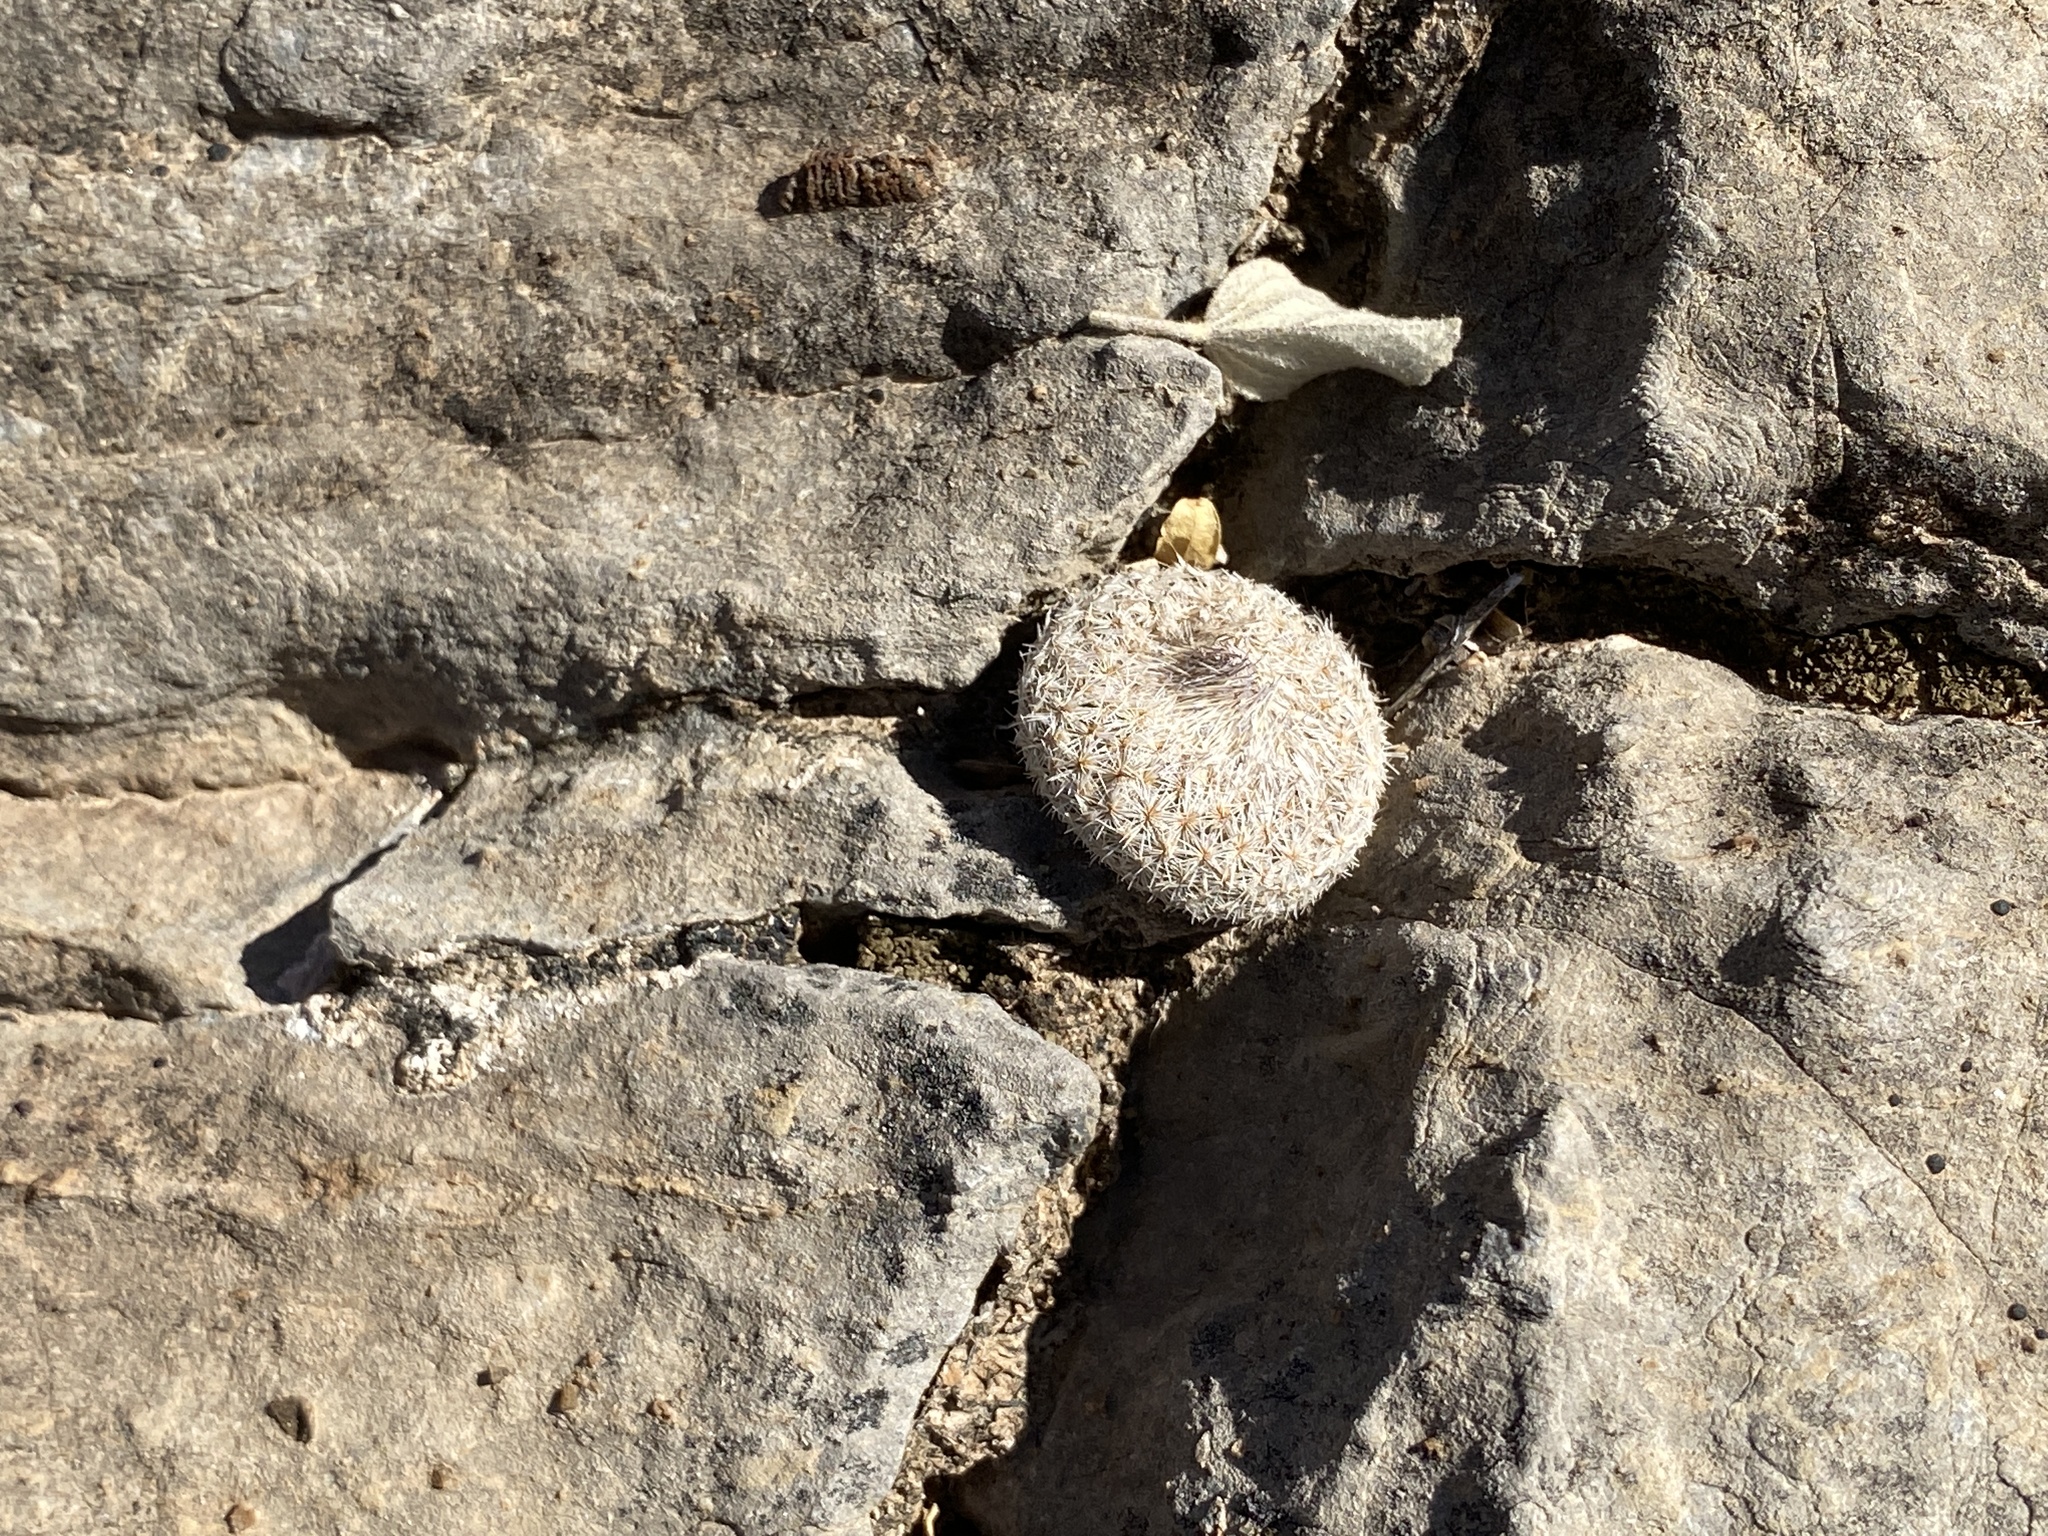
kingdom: Plantae
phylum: Tracheophyta
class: Magnoliopsida
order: Caryophyllales
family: Cactaceae
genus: Epithelantha
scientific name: Epithelantha micromeris
